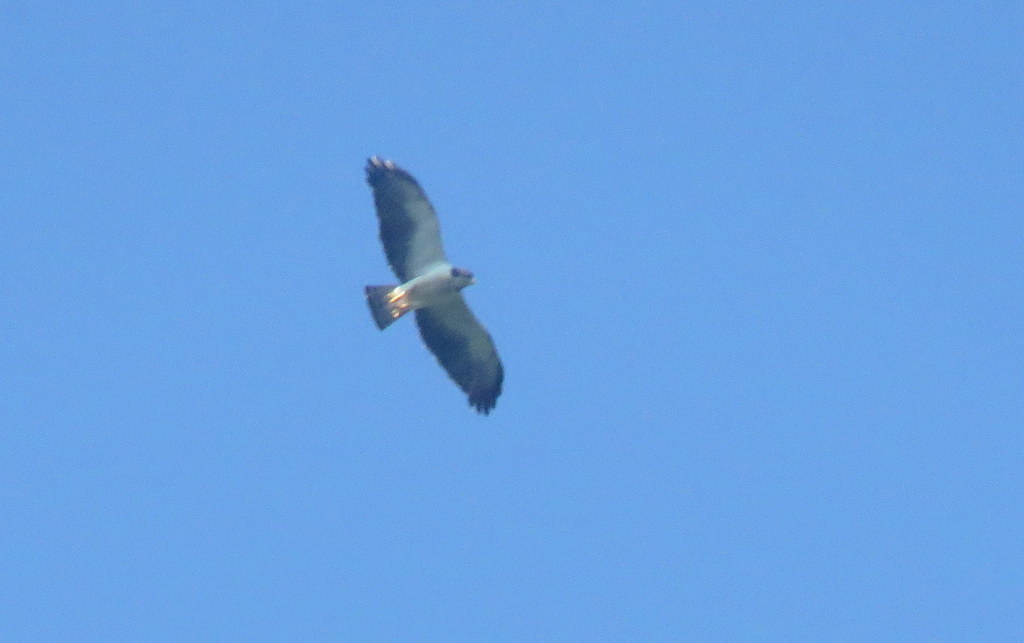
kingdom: Animalia
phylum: Chordata
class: Aves
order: Accipitriformes
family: Accipitridae
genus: Buteo
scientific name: Buteo brachyurus
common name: Short-tailed hawk
